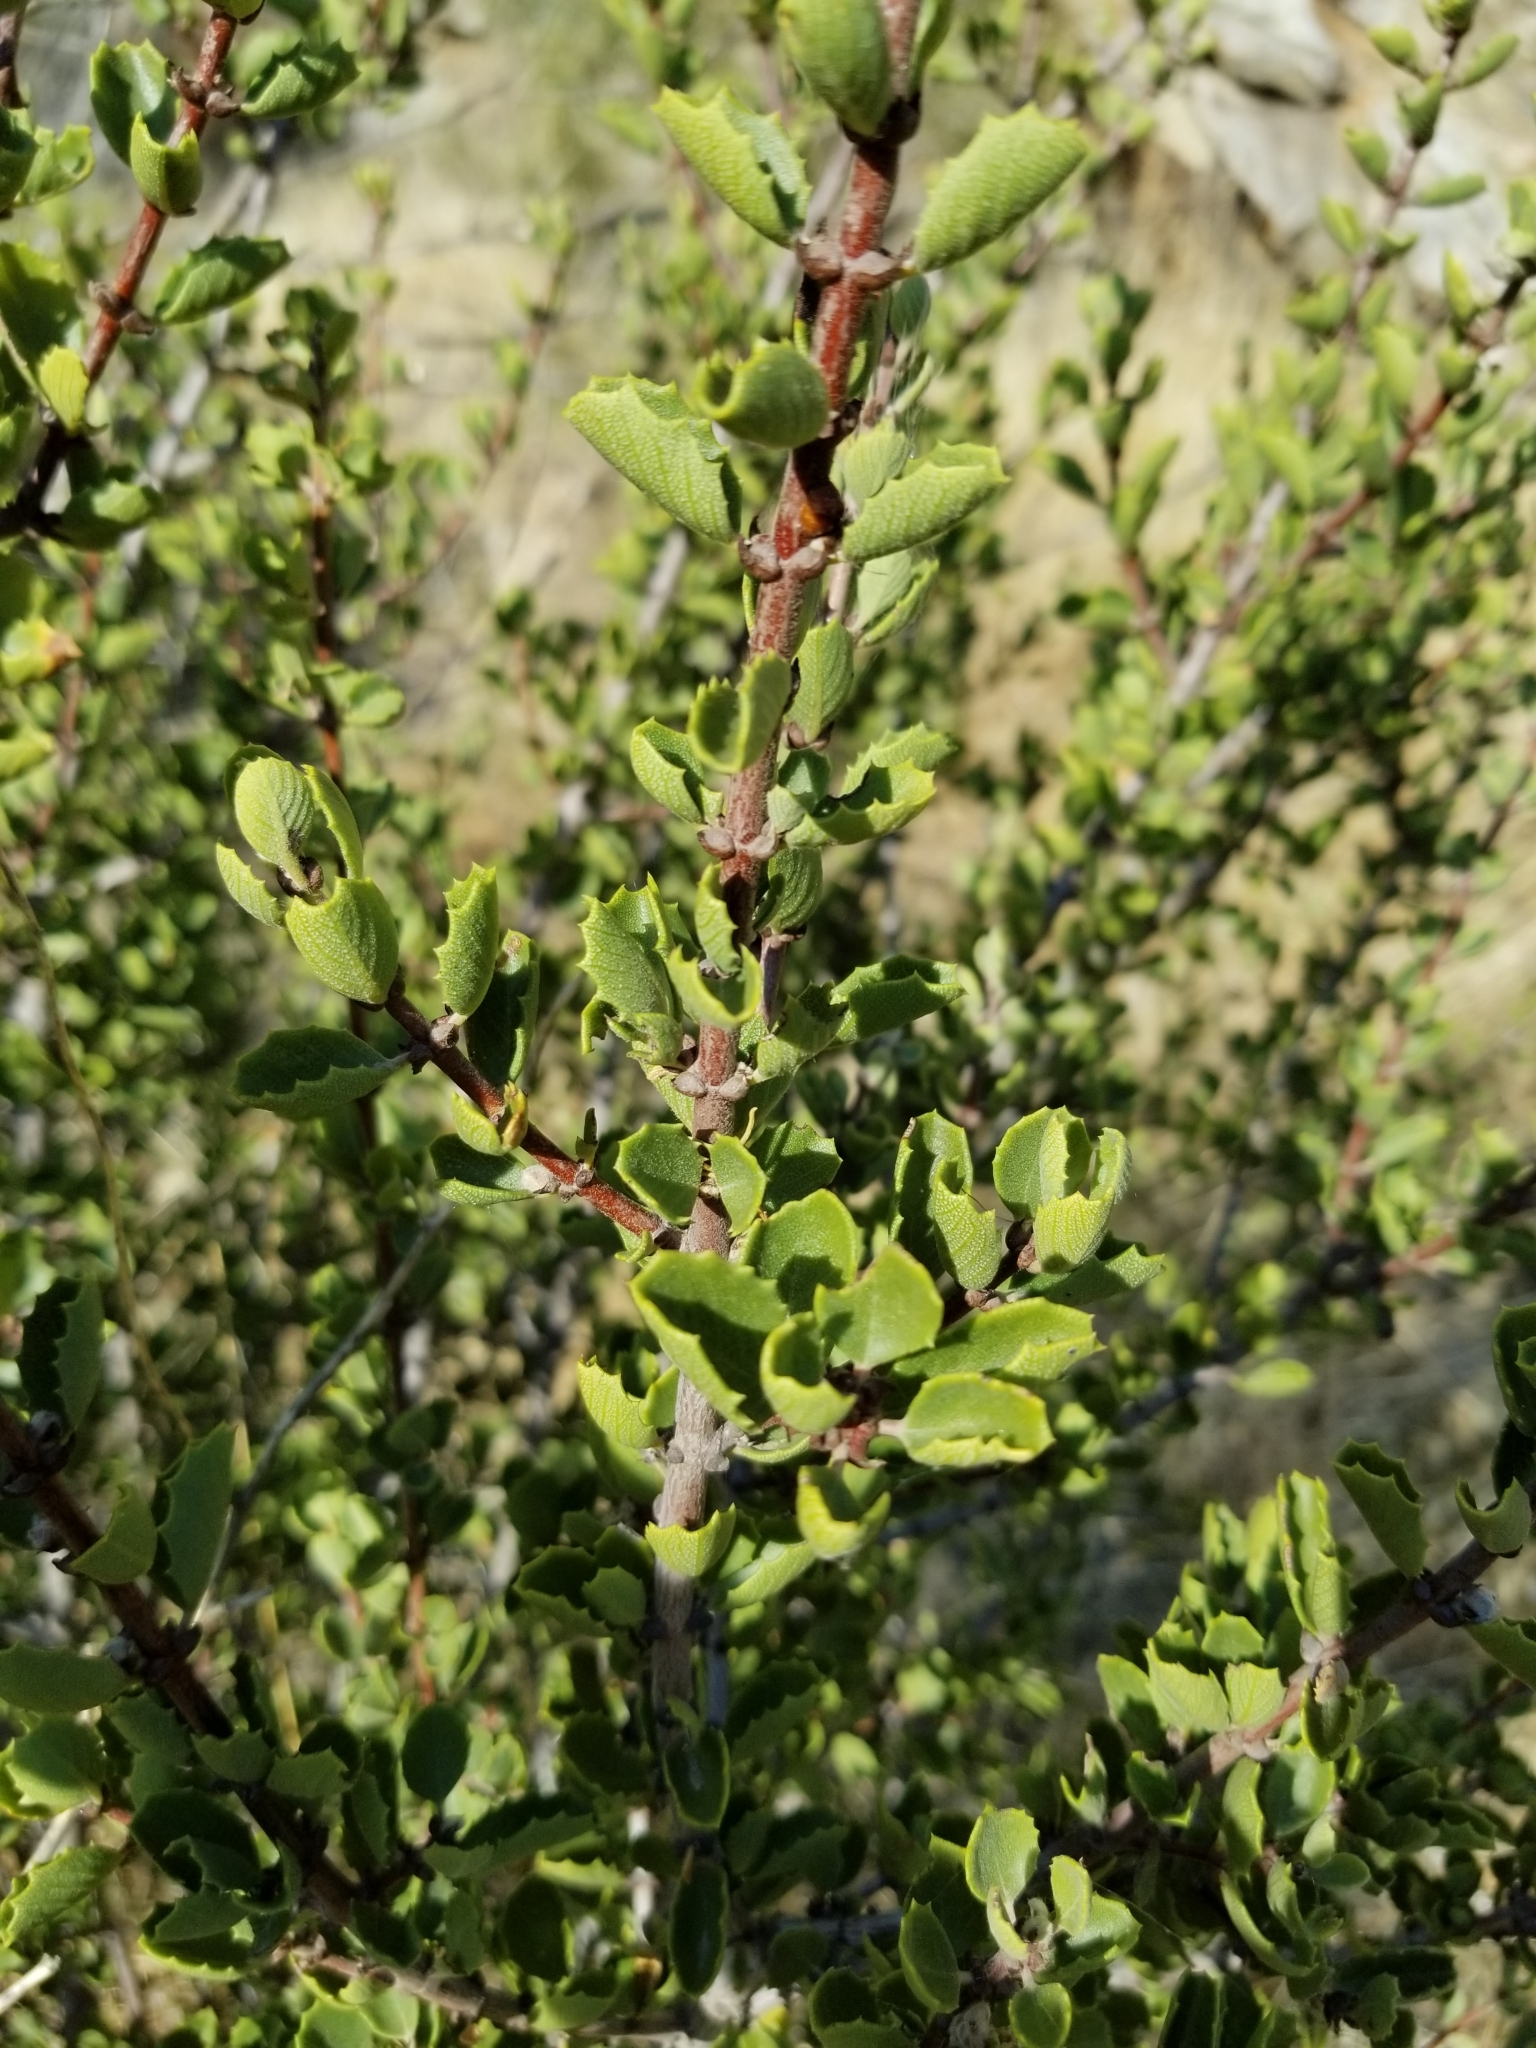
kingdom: Plantae
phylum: Tracheophyta
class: Magnoliopsida
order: Rosales
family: Rhamnaceae
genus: Ceanothus
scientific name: Ceanothus perplexans
